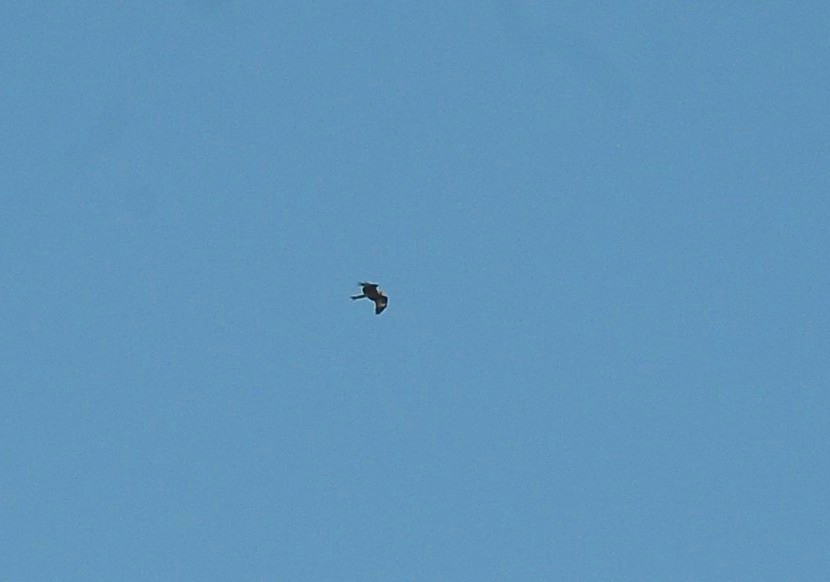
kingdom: Animalia
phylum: Chordata
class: Aves
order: Accipitriformes
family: Accipitridae
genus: Milvus
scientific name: Milvus migrans
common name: Black kite
